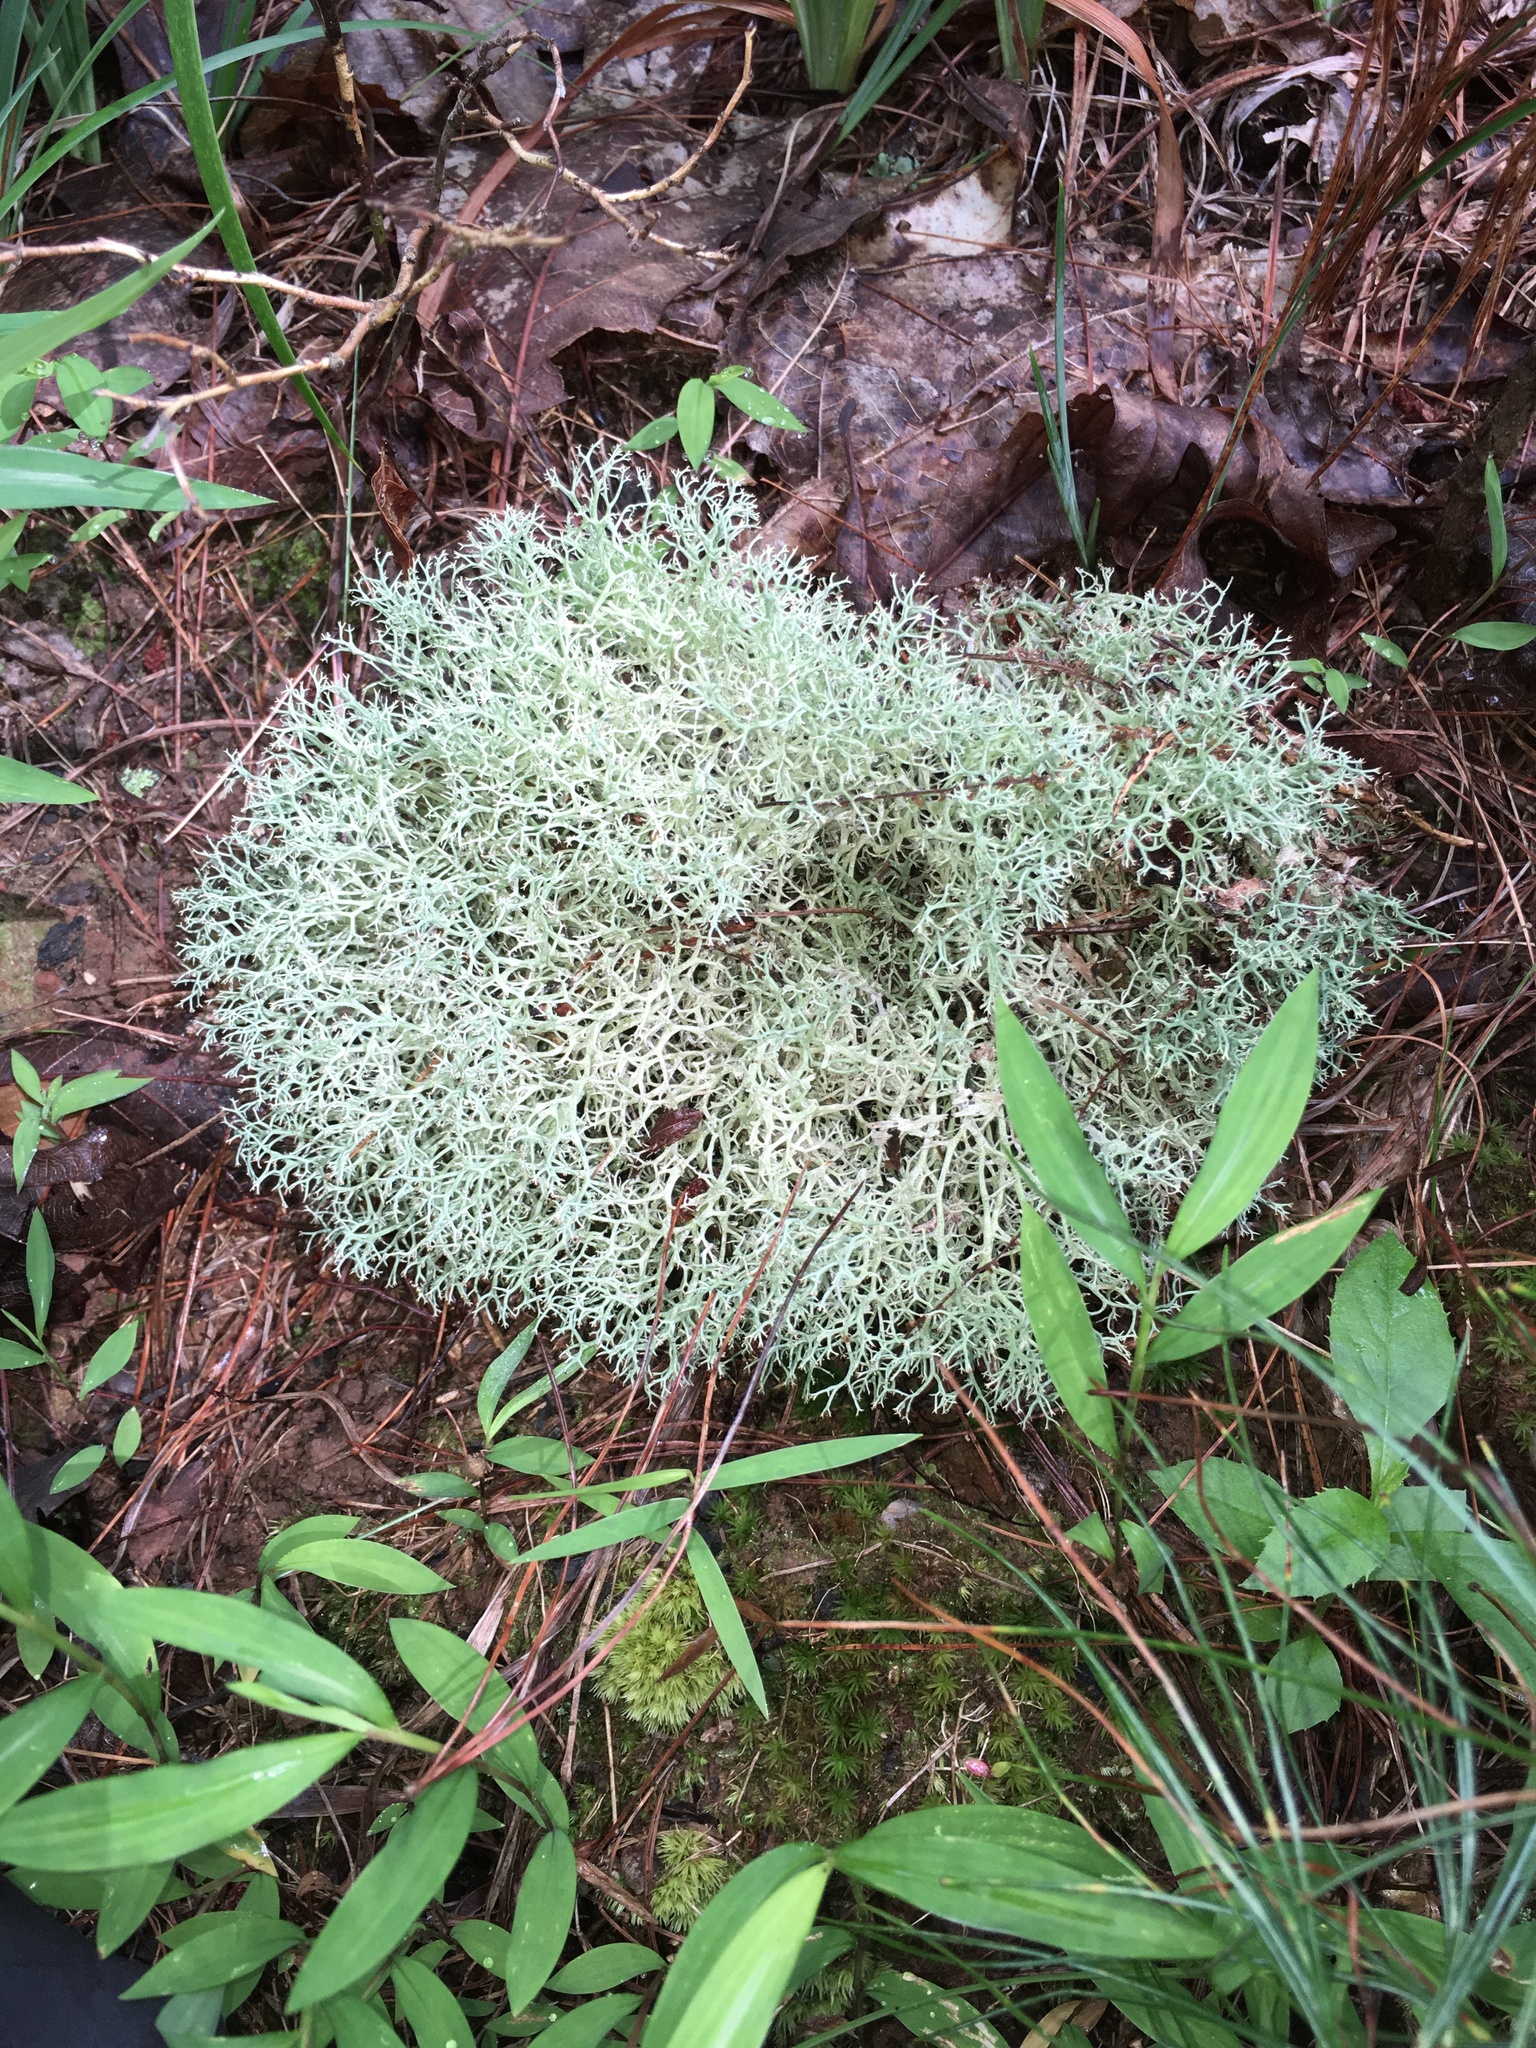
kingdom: Fungi
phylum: Ascomycota
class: Lecanoromycetes
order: Lecanorales
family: Cladoniaceae
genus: Cladonia
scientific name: Cladonia subtenuis
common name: Dixie reindeer lichen
